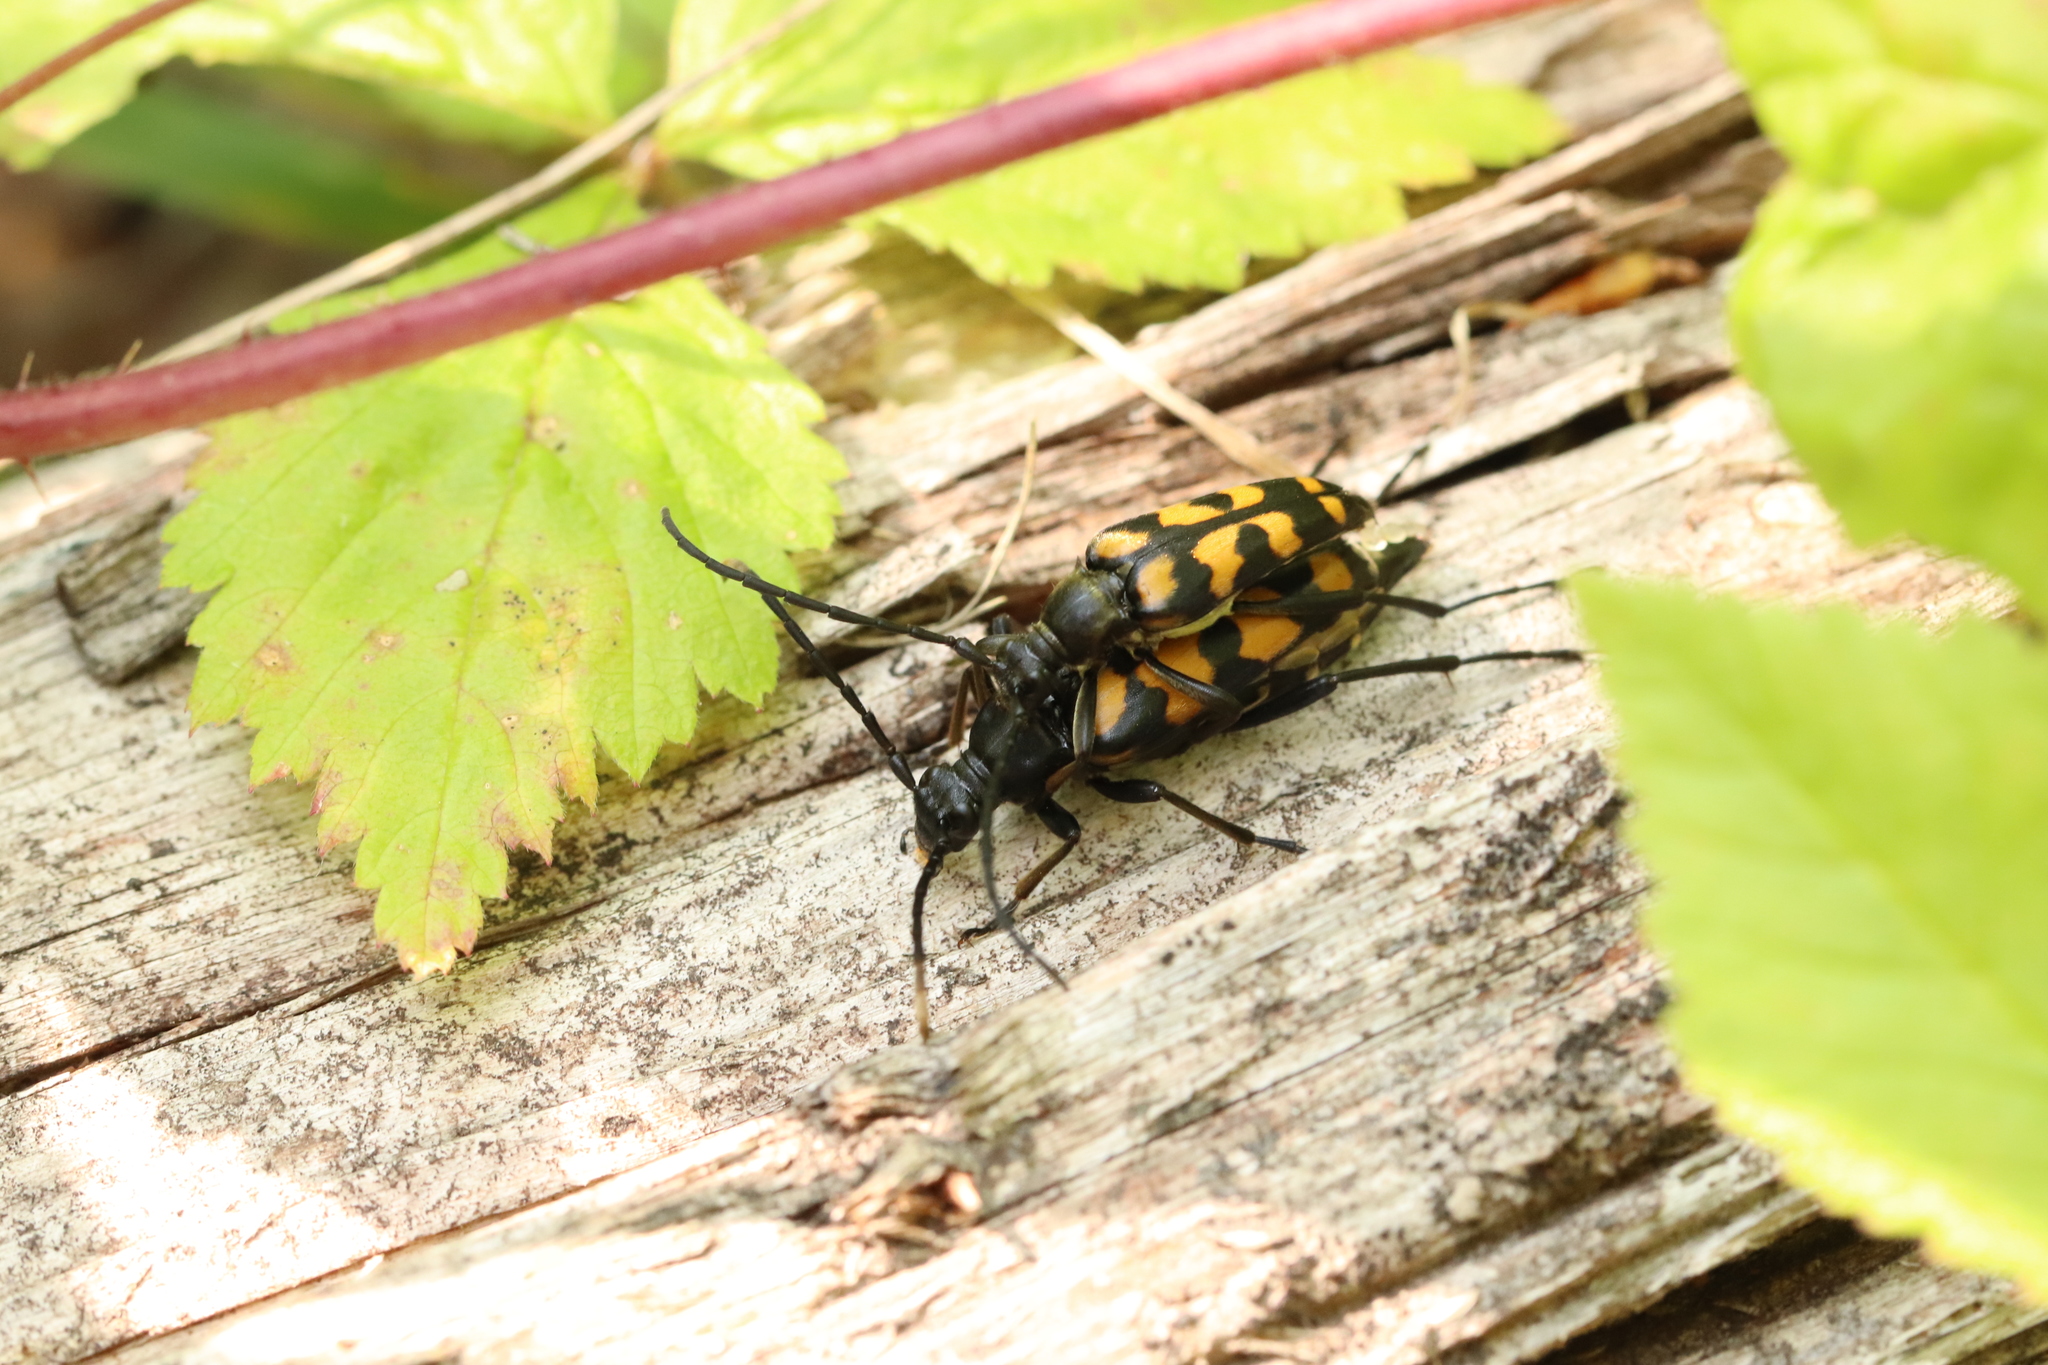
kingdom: Animalia
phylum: Arthropoda
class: Insecta
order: Coleoptera
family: Cerambycidae
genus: Leptura
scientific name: Leptura quadrifasciata
